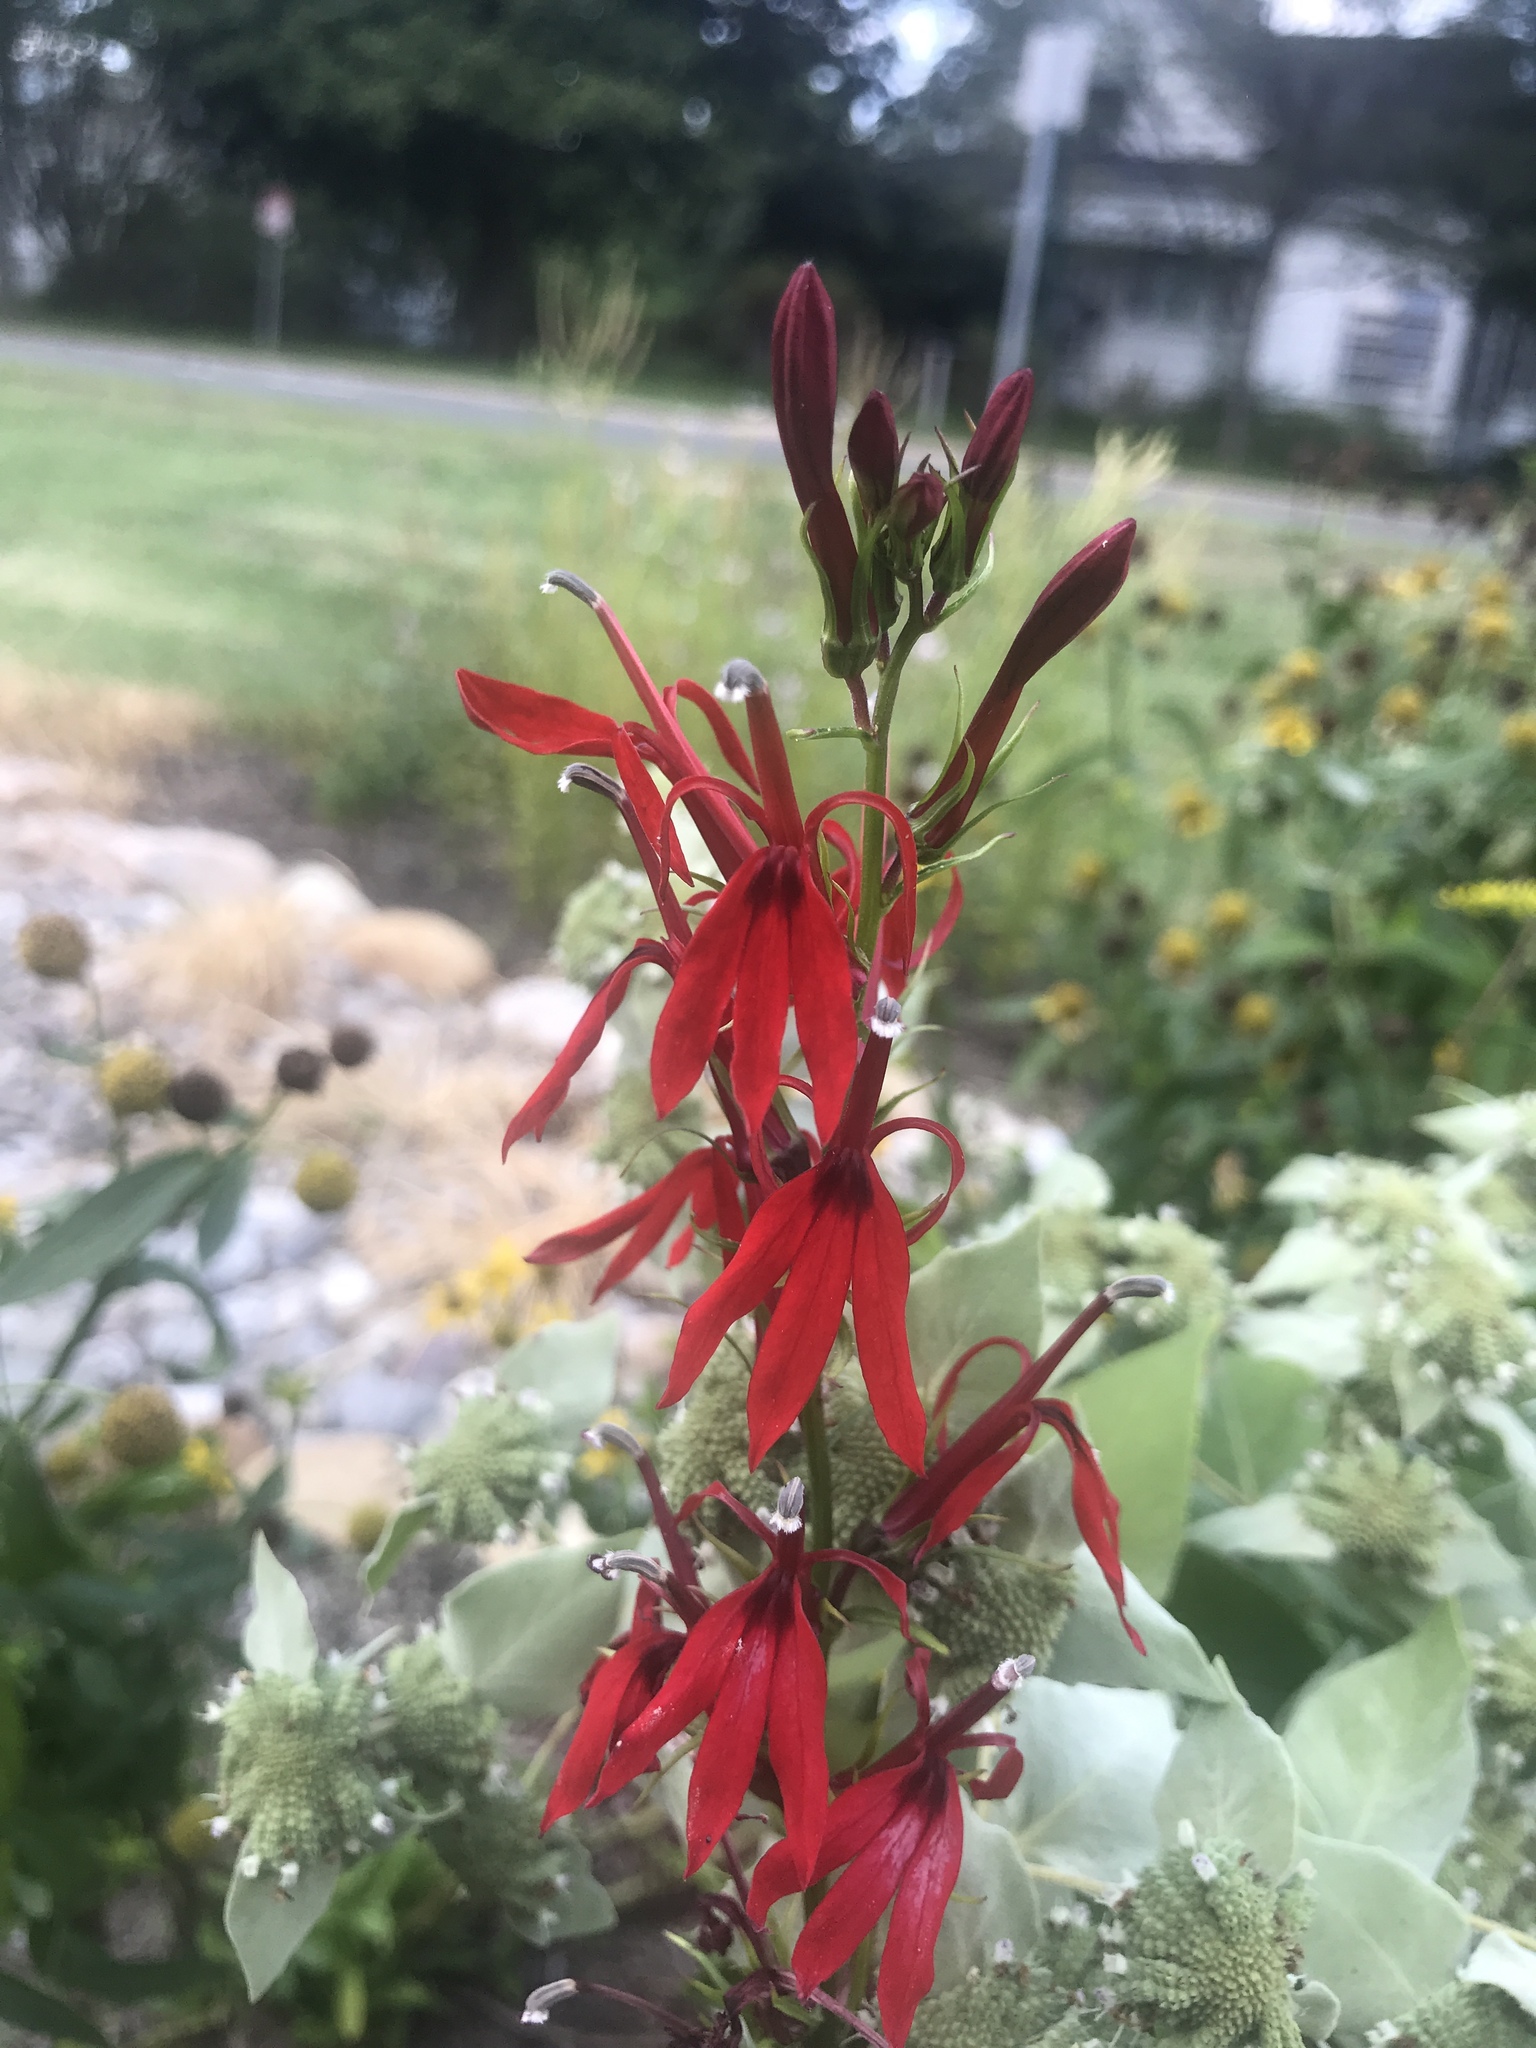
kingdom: Plantae
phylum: Tracheophyta
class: Magnoliopsida
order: Asterales
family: Campanulaceae
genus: Lobelia
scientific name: Lobelia cardinalis
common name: Cardinal flower
